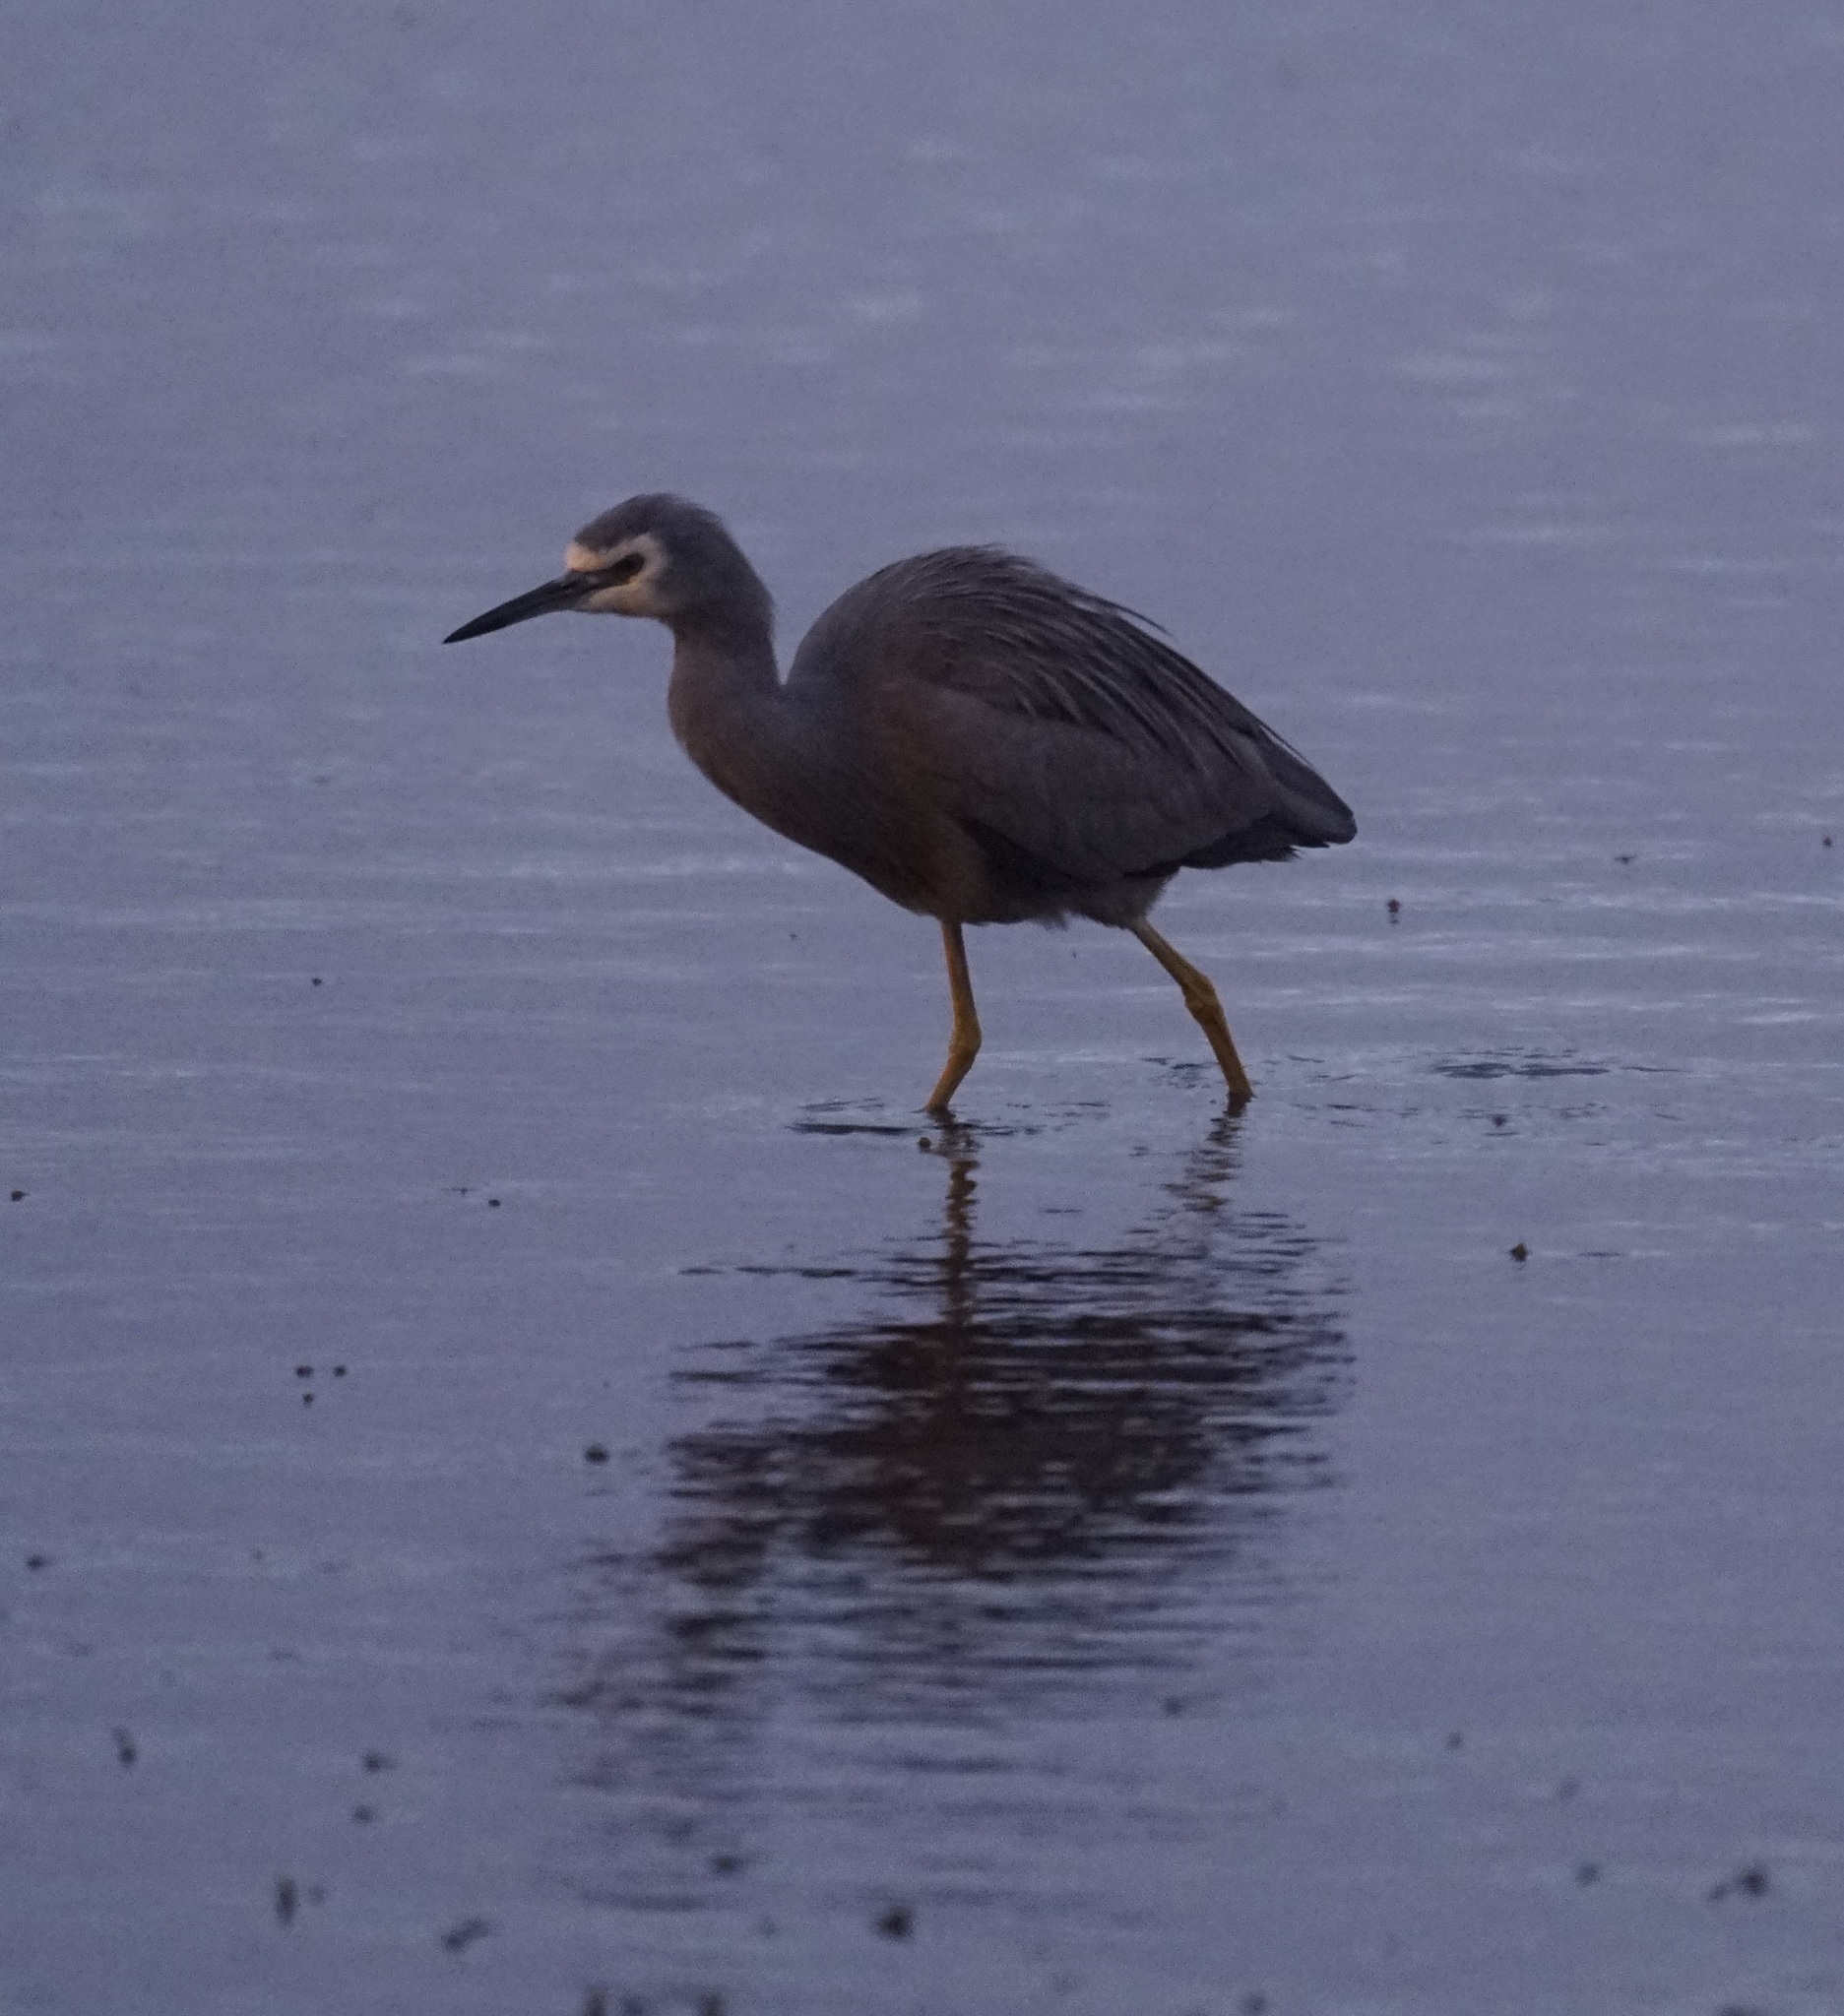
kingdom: Animalia
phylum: Chordata
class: Aves
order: Pelecaniformes
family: Ardeidae
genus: Egretta
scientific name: Egretta novaehollandiae
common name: White-faced heron
